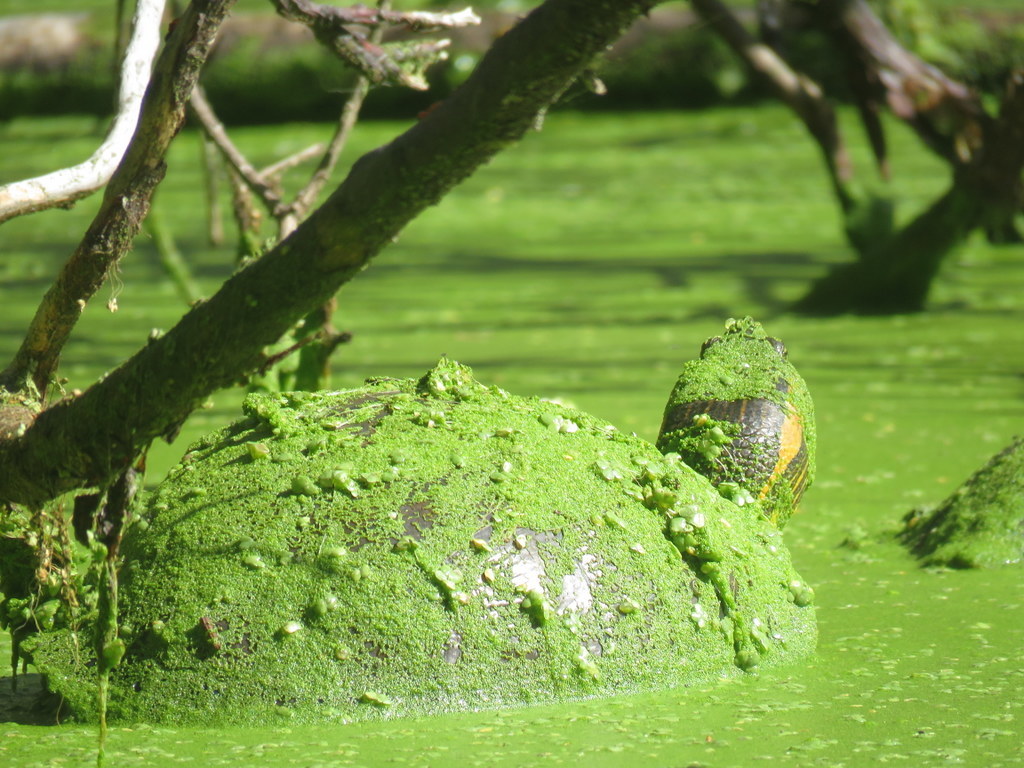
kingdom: Animalia
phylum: Chordata
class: Testudines
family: Emydidae
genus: Trachemys
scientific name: Trachemys dorbigni
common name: Black-bellied slider
